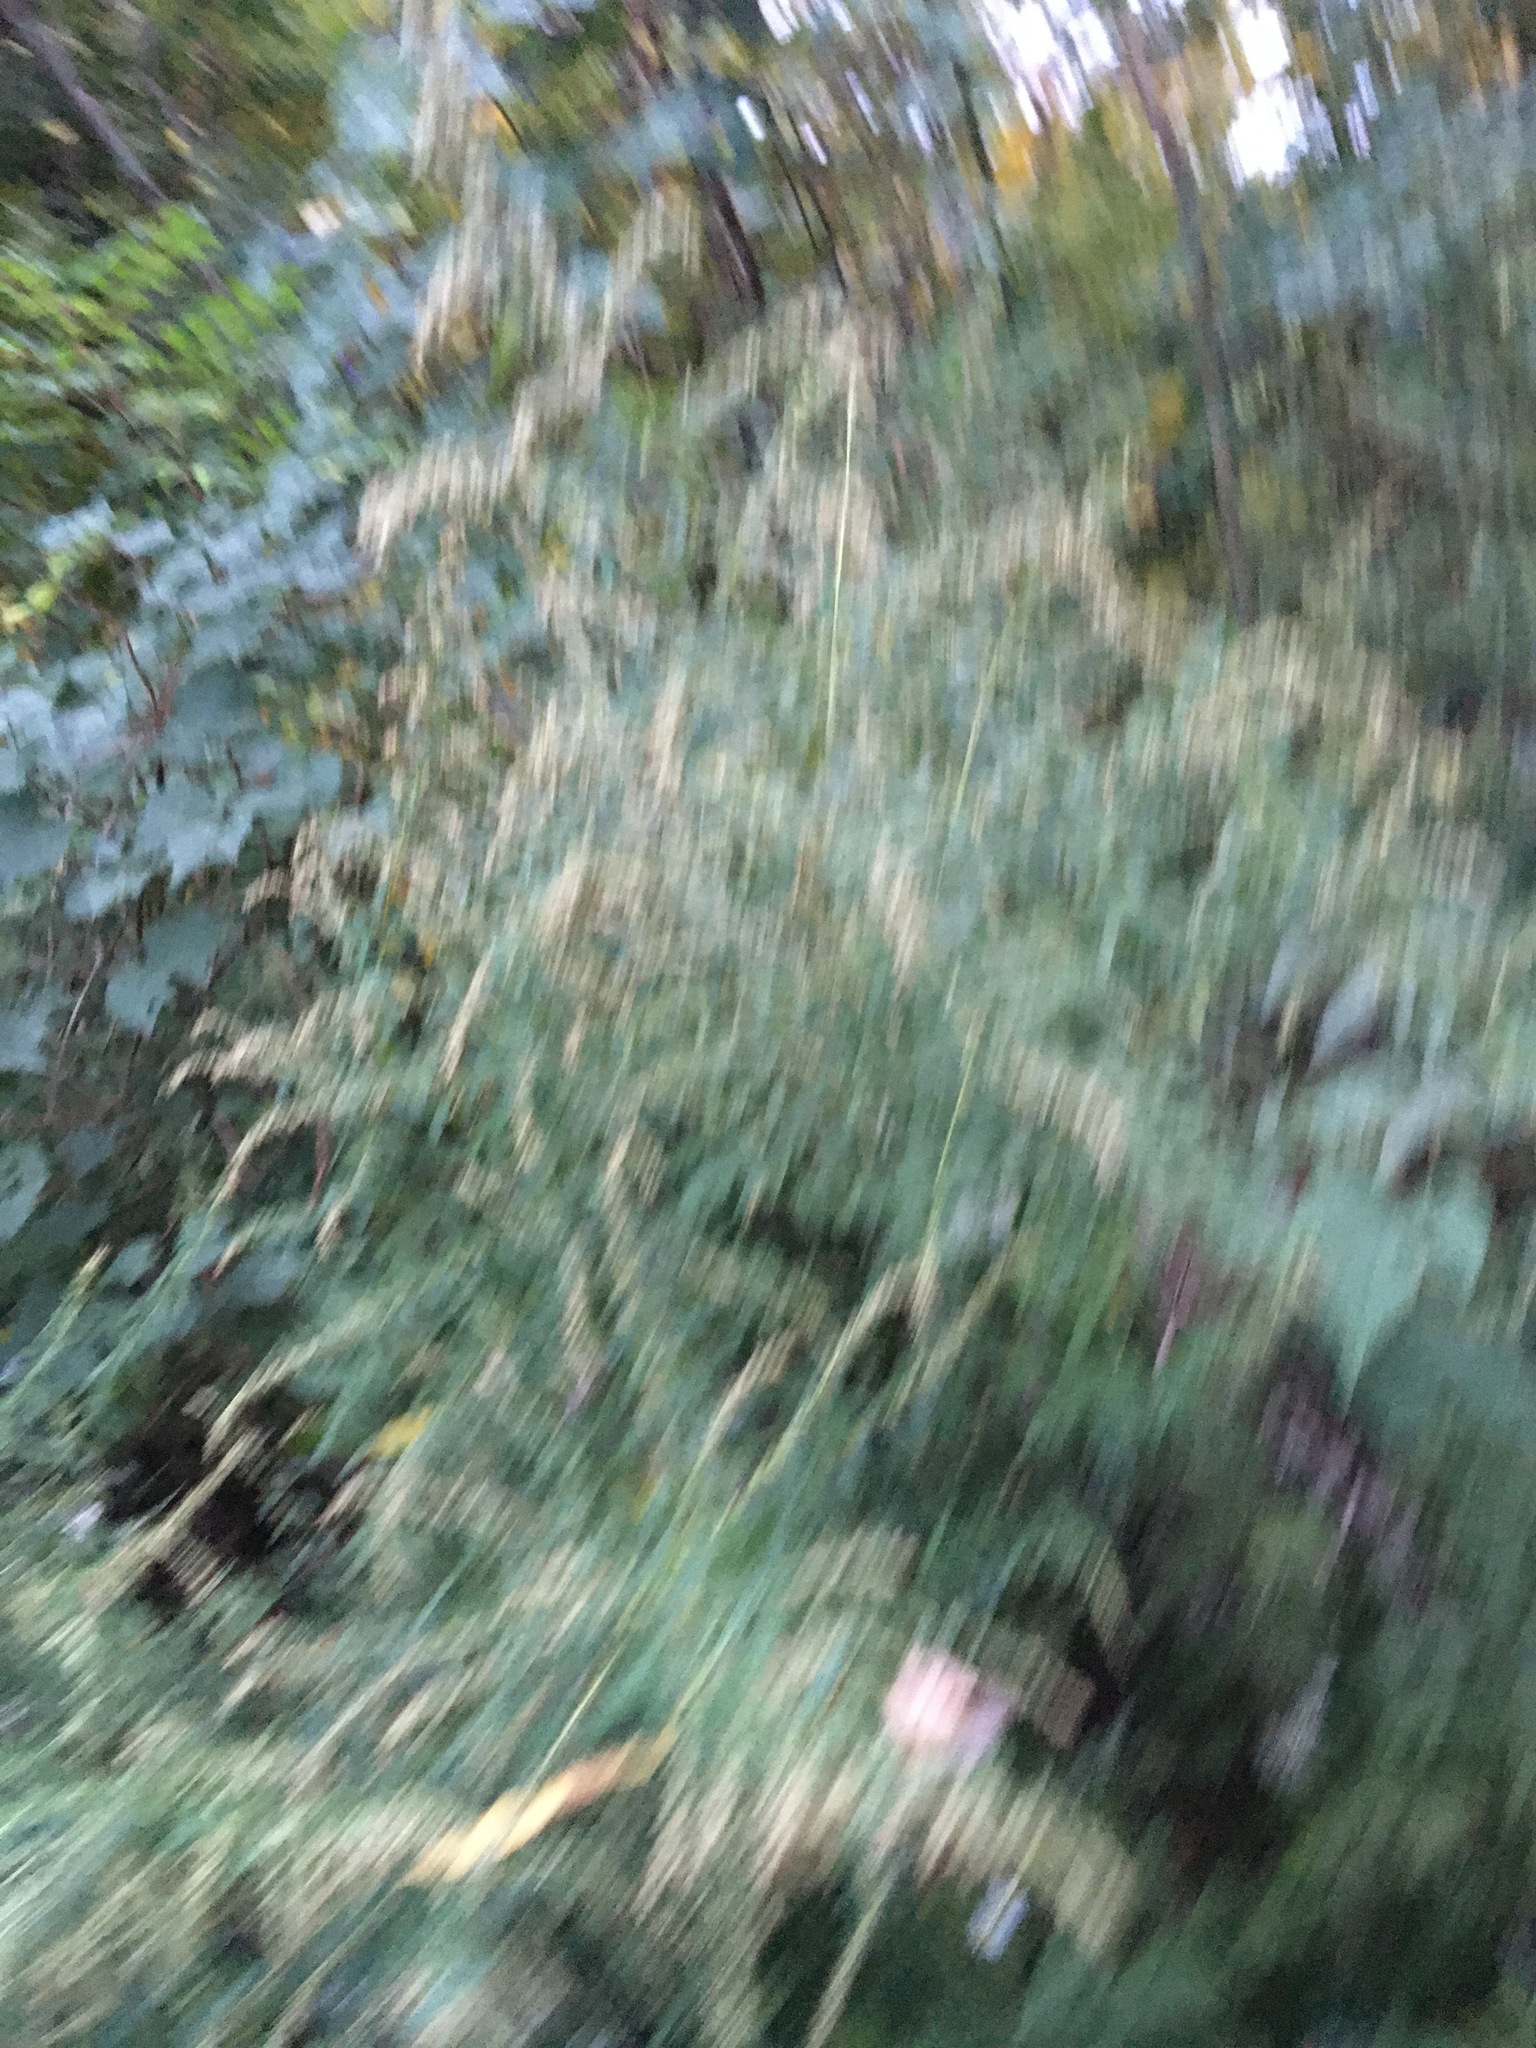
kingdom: Plantae
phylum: Tracheophyta
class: Magnoliopsida
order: Asterales
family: Asteraceae
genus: Artemisia
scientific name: Artemisia vulgaris
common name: Mugwort
